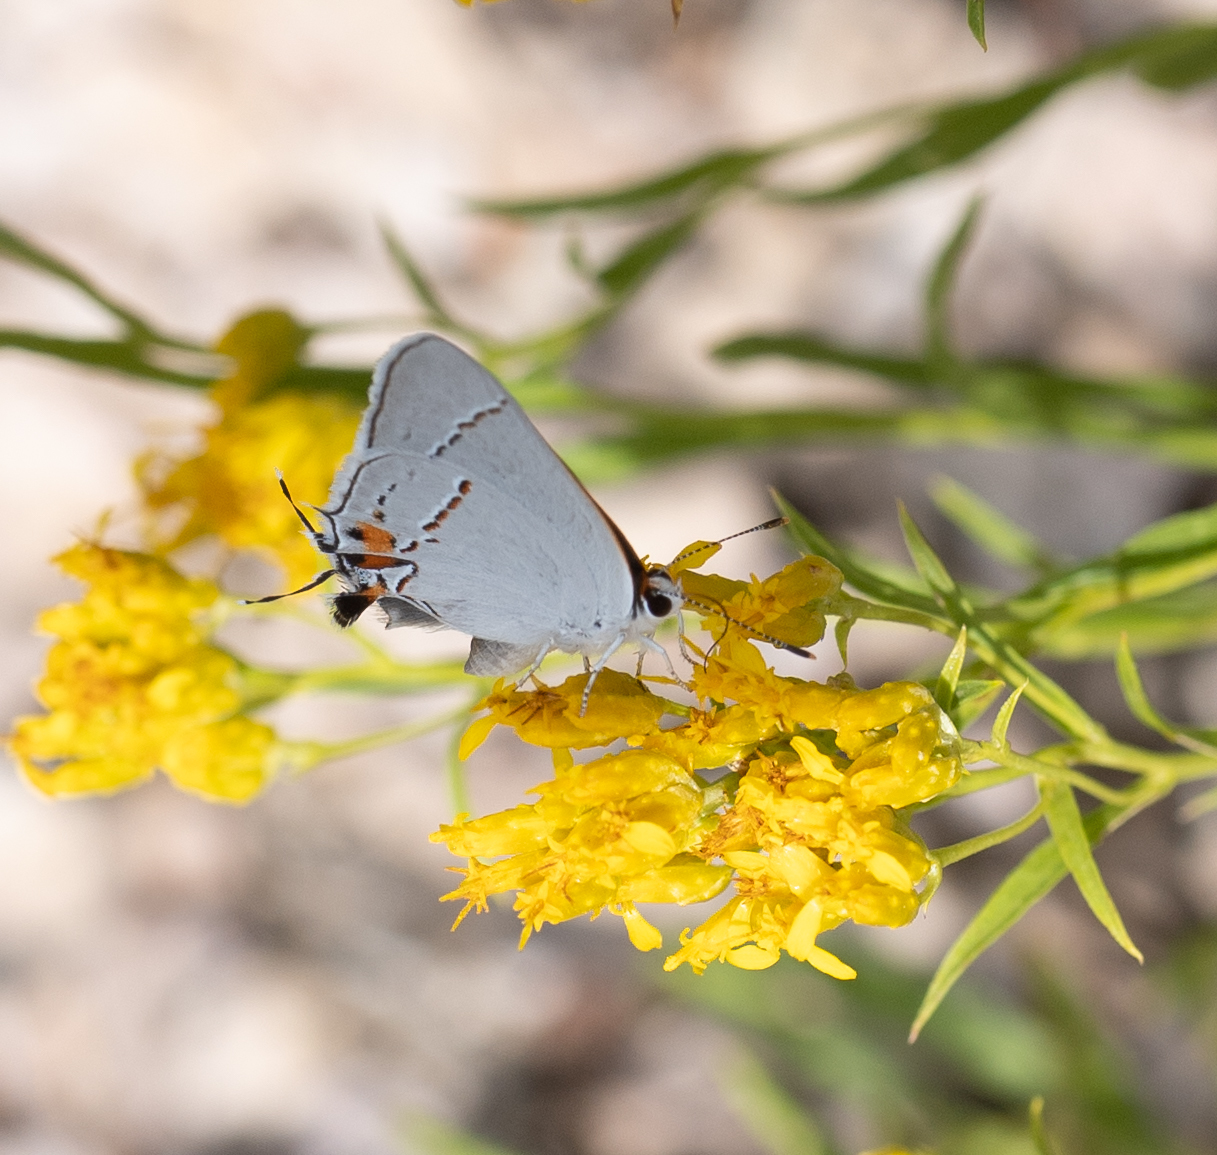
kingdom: Animalia
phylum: Arthropoda
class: Insecta
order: Lepidoptera
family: Lycaenidae
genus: Strymon
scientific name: Strymon melinus
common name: Gray hairstreak
